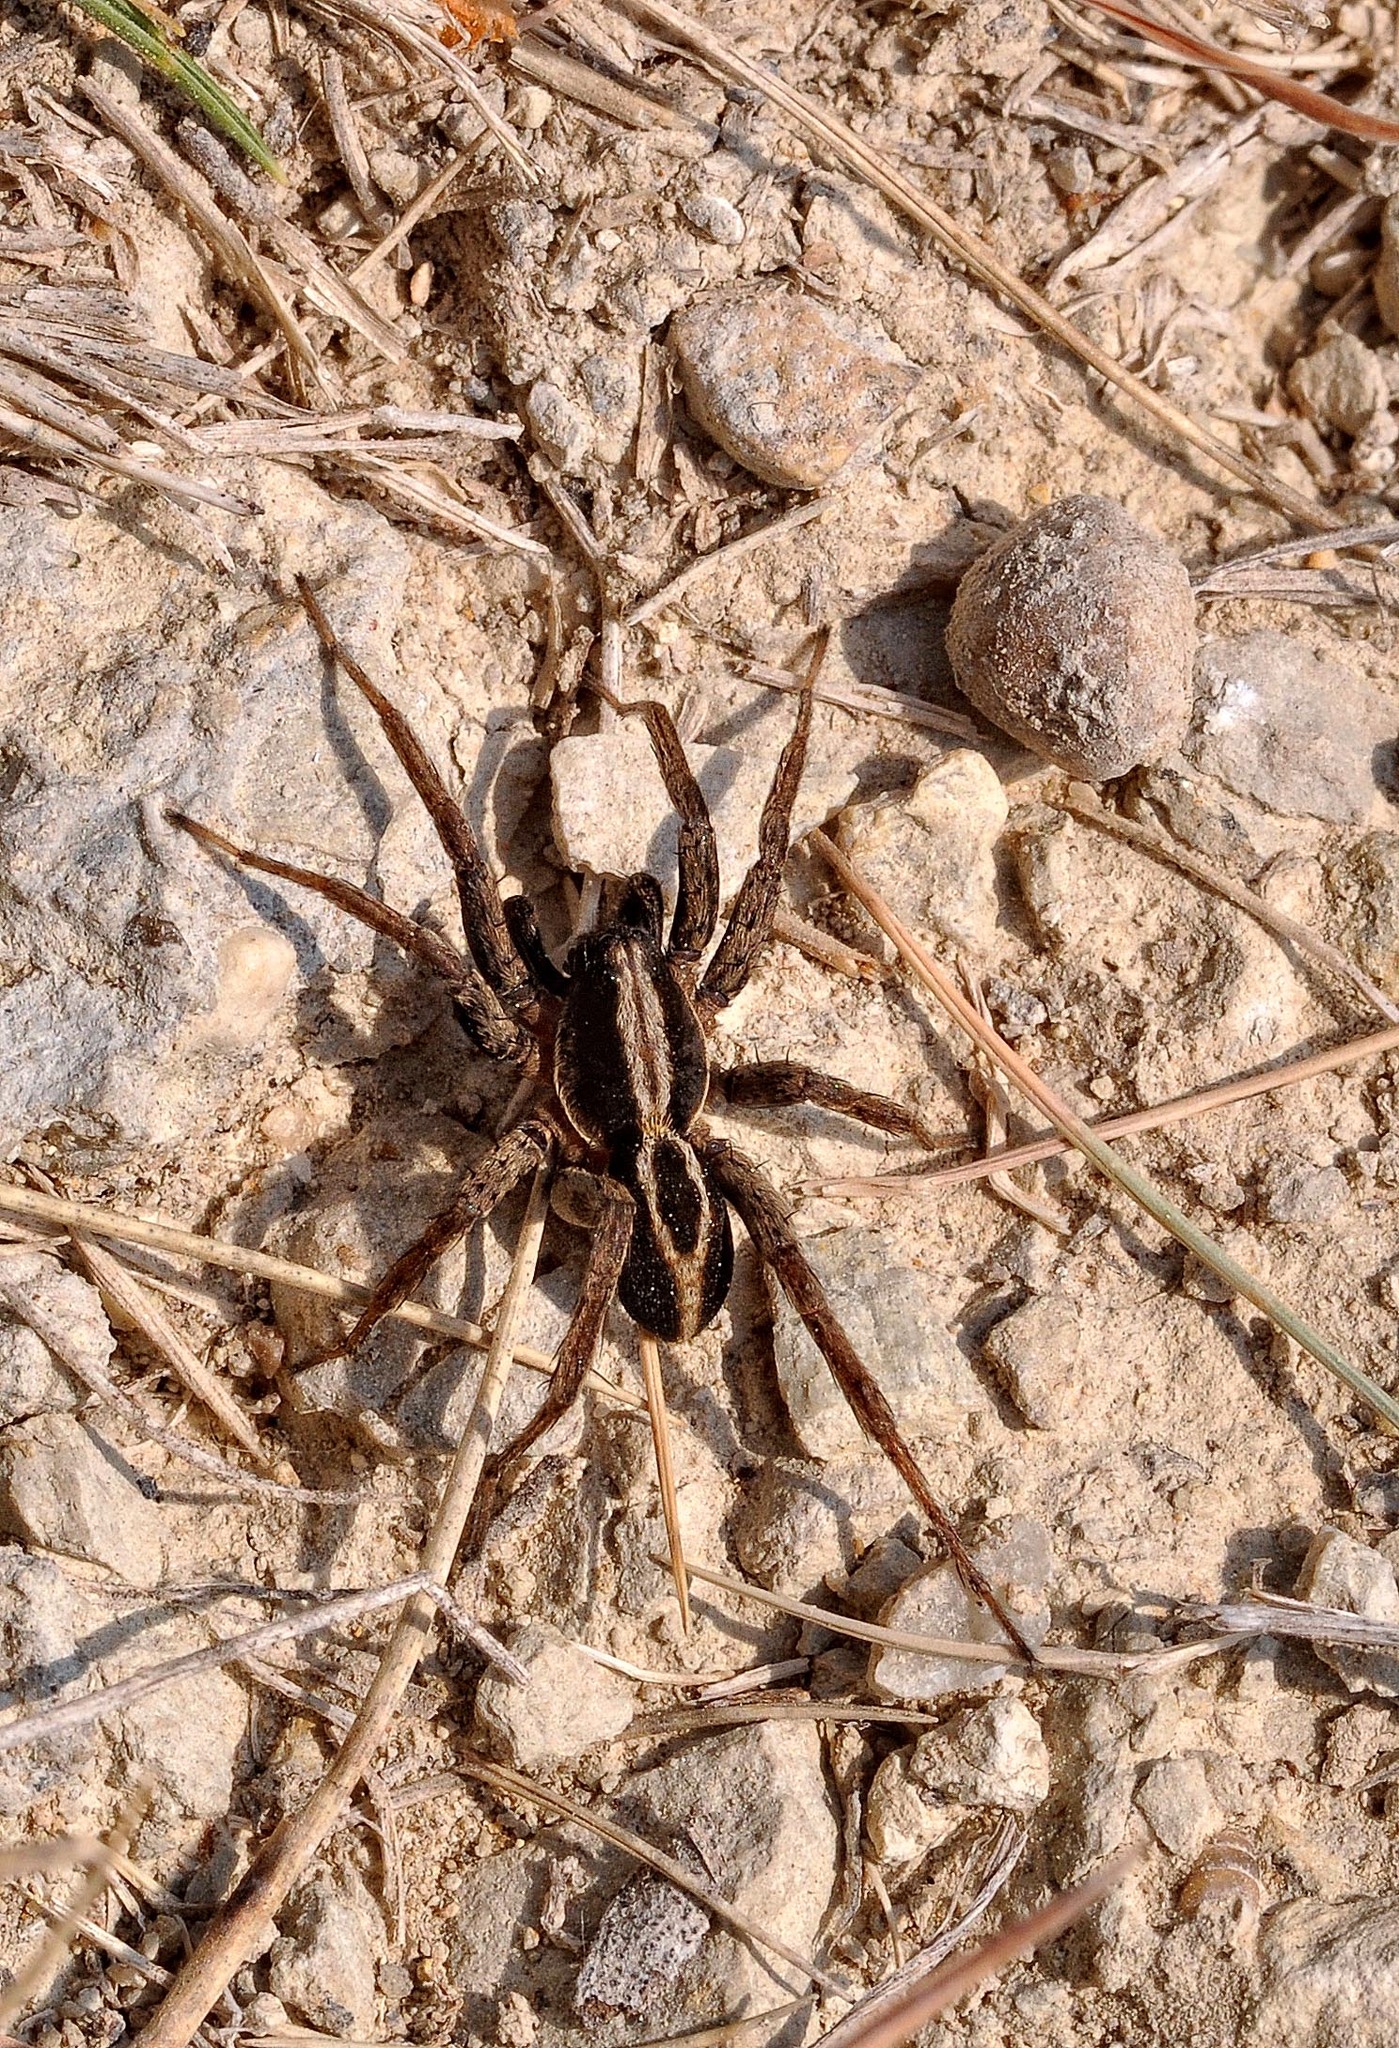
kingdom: Animalia
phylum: Arthropoda
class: Arachnida
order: Araneae
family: Lycosidae
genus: Alopecosa
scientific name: Alopecosa albofasciata
